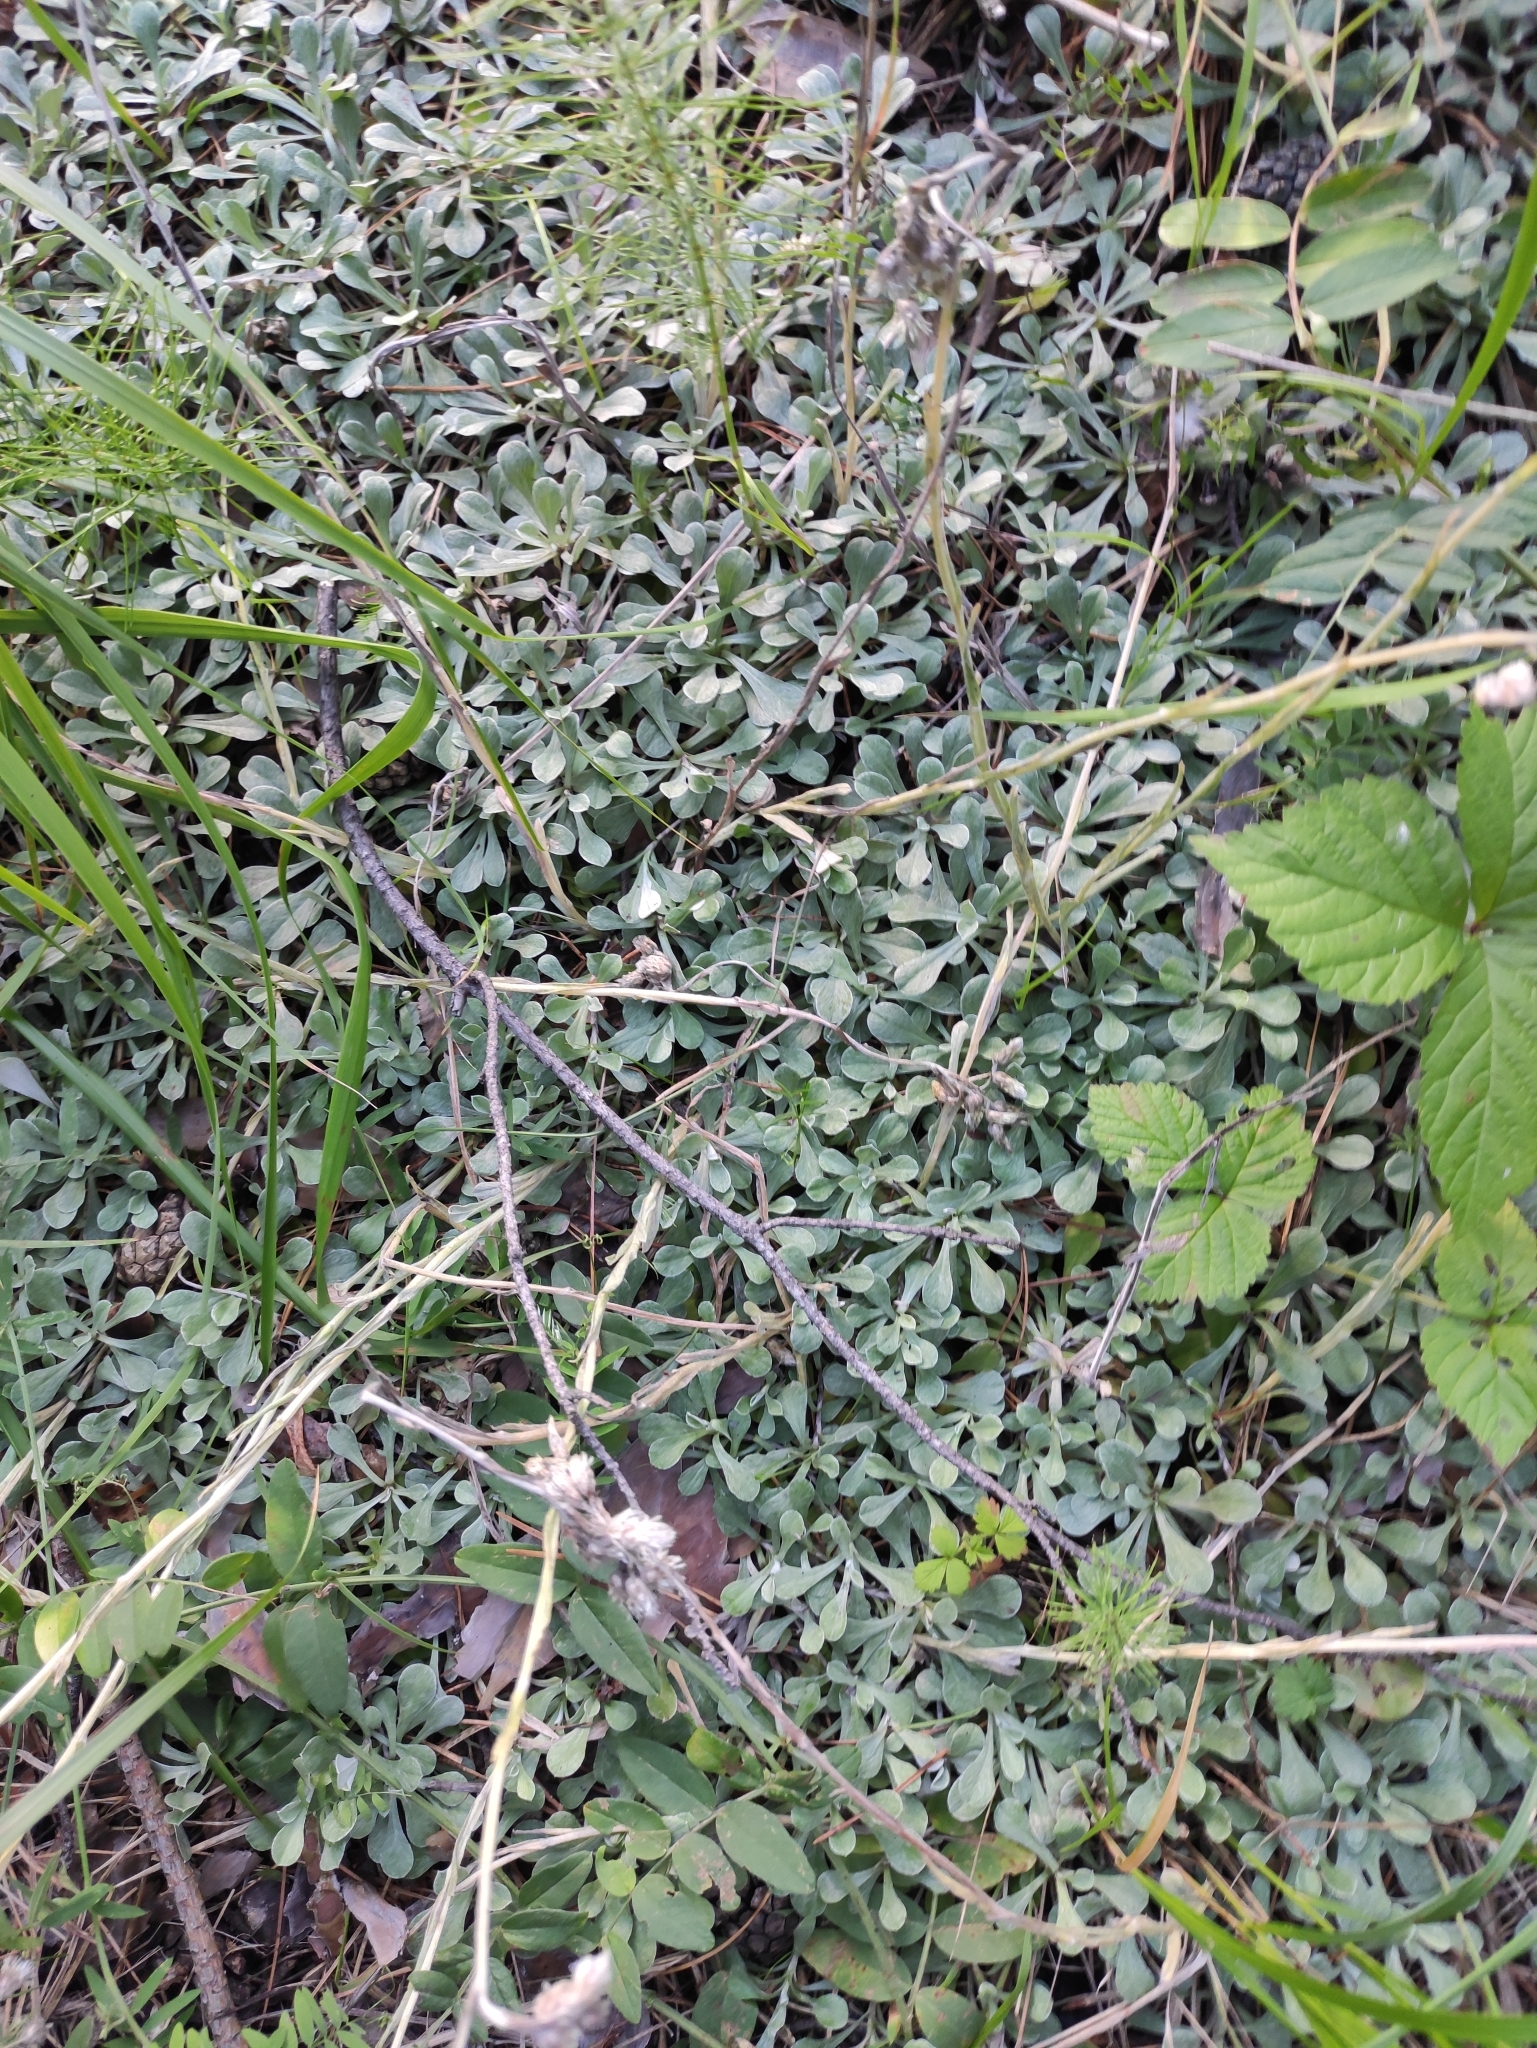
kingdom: Plantae
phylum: Tracheophyta
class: Magnoliopsida
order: Asterales
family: Asteraceae
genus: Antennaria
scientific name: Antennaria dioica
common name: Mountain everlasting
